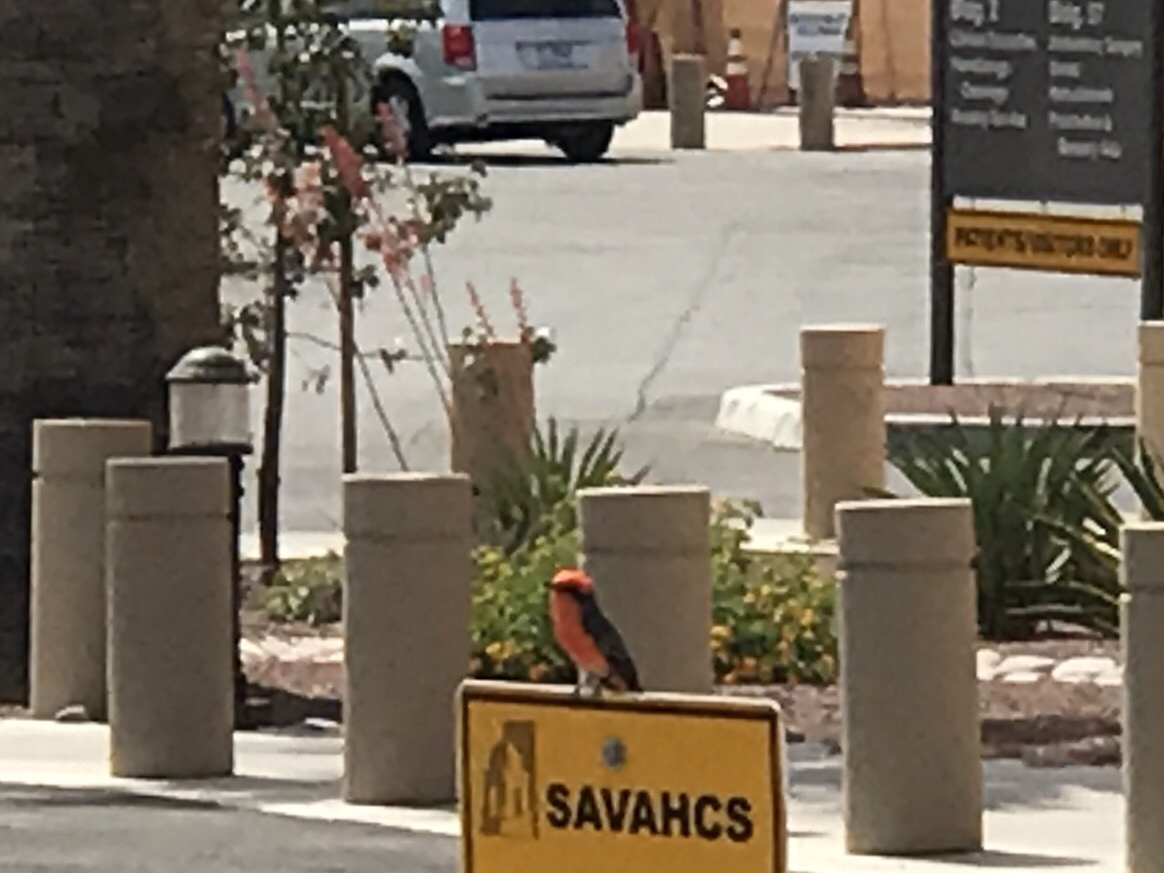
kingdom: Animalia
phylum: Chordata
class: Aves
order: Passeriformes
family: Tyrannidae
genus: Pyrocephalus
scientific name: Pyrocephalus rubinus
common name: Vermilion flycatcher
